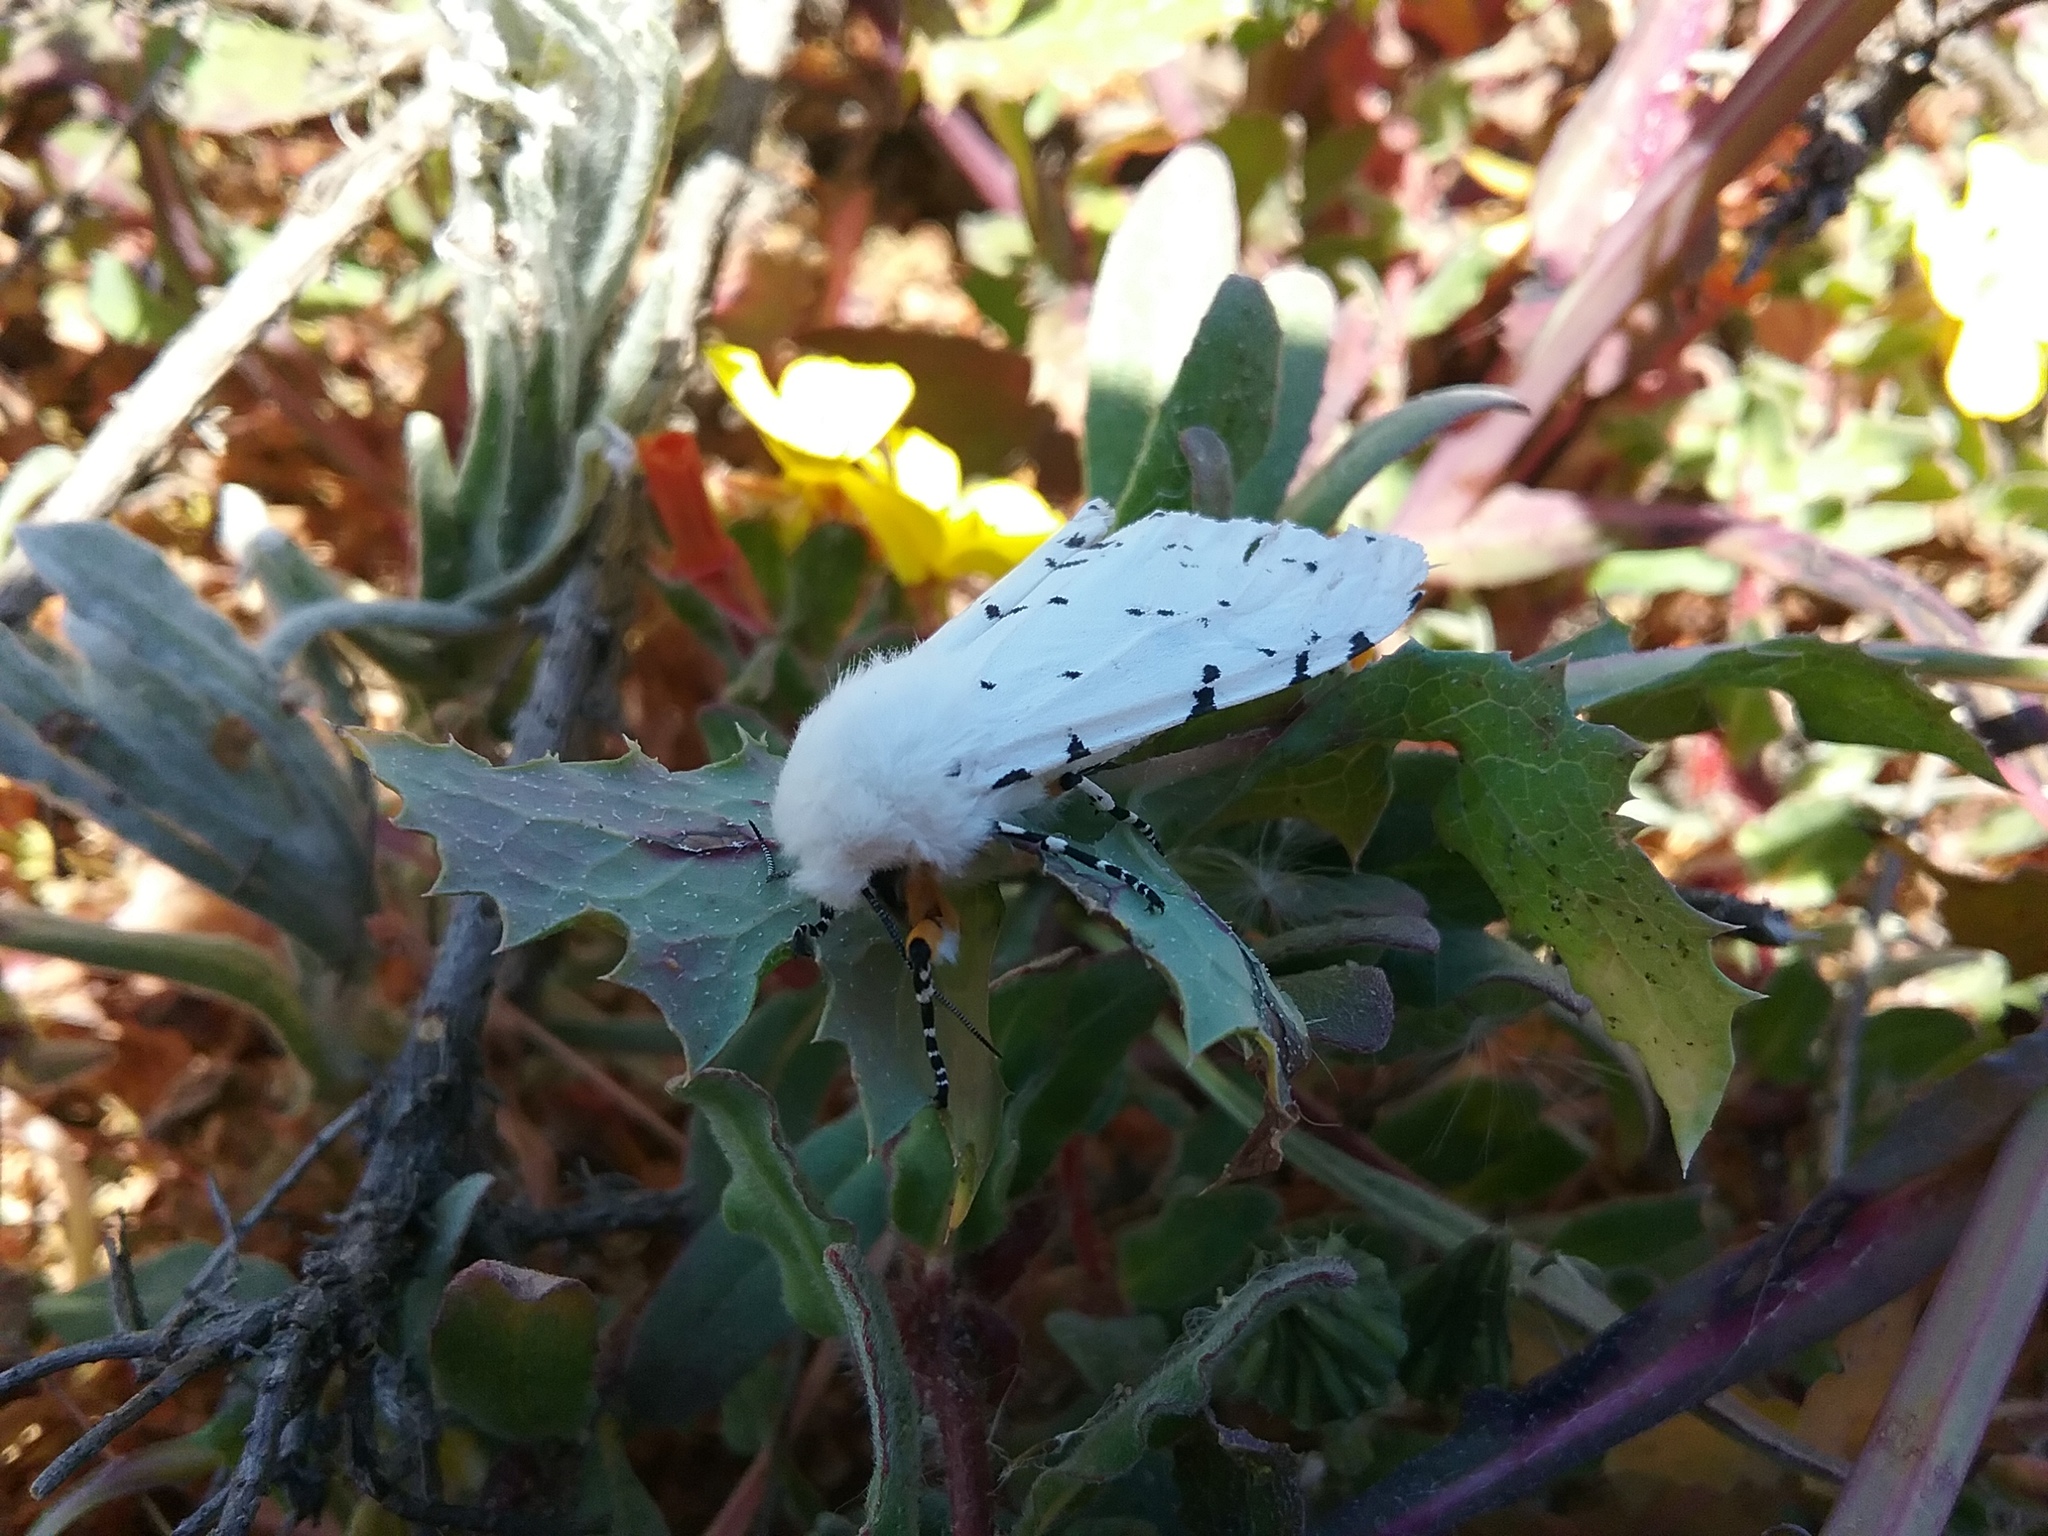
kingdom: Animalia
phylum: Arthropoda
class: Insecta
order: Lepidoptera
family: Erebidae
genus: Estigmene
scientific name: Estigmene acrea
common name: Salt marsh moth
